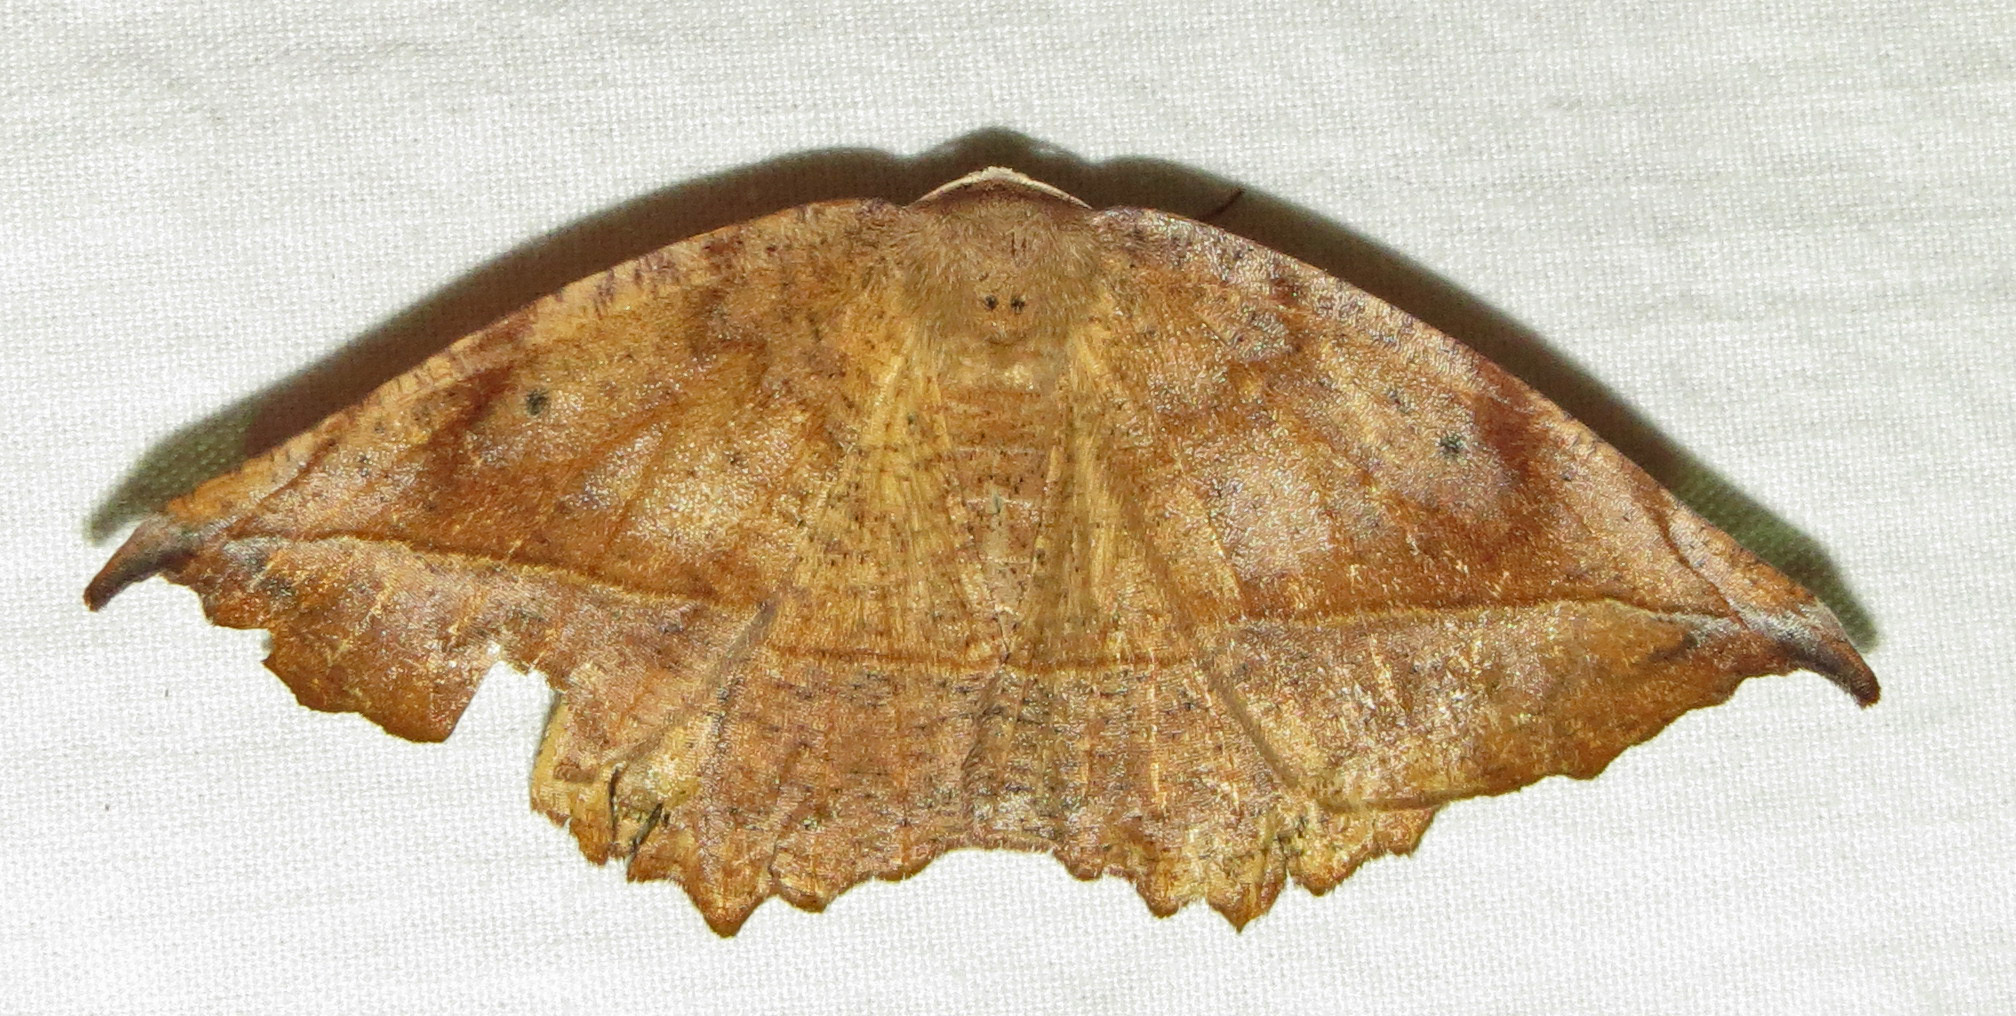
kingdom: Animalia
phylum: Arthropoda
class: Insecta
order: Lepidoptera
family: Geometridae
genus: Eutrapela
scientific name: Eutrapela clemataria
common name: Curved-toothed geometer
